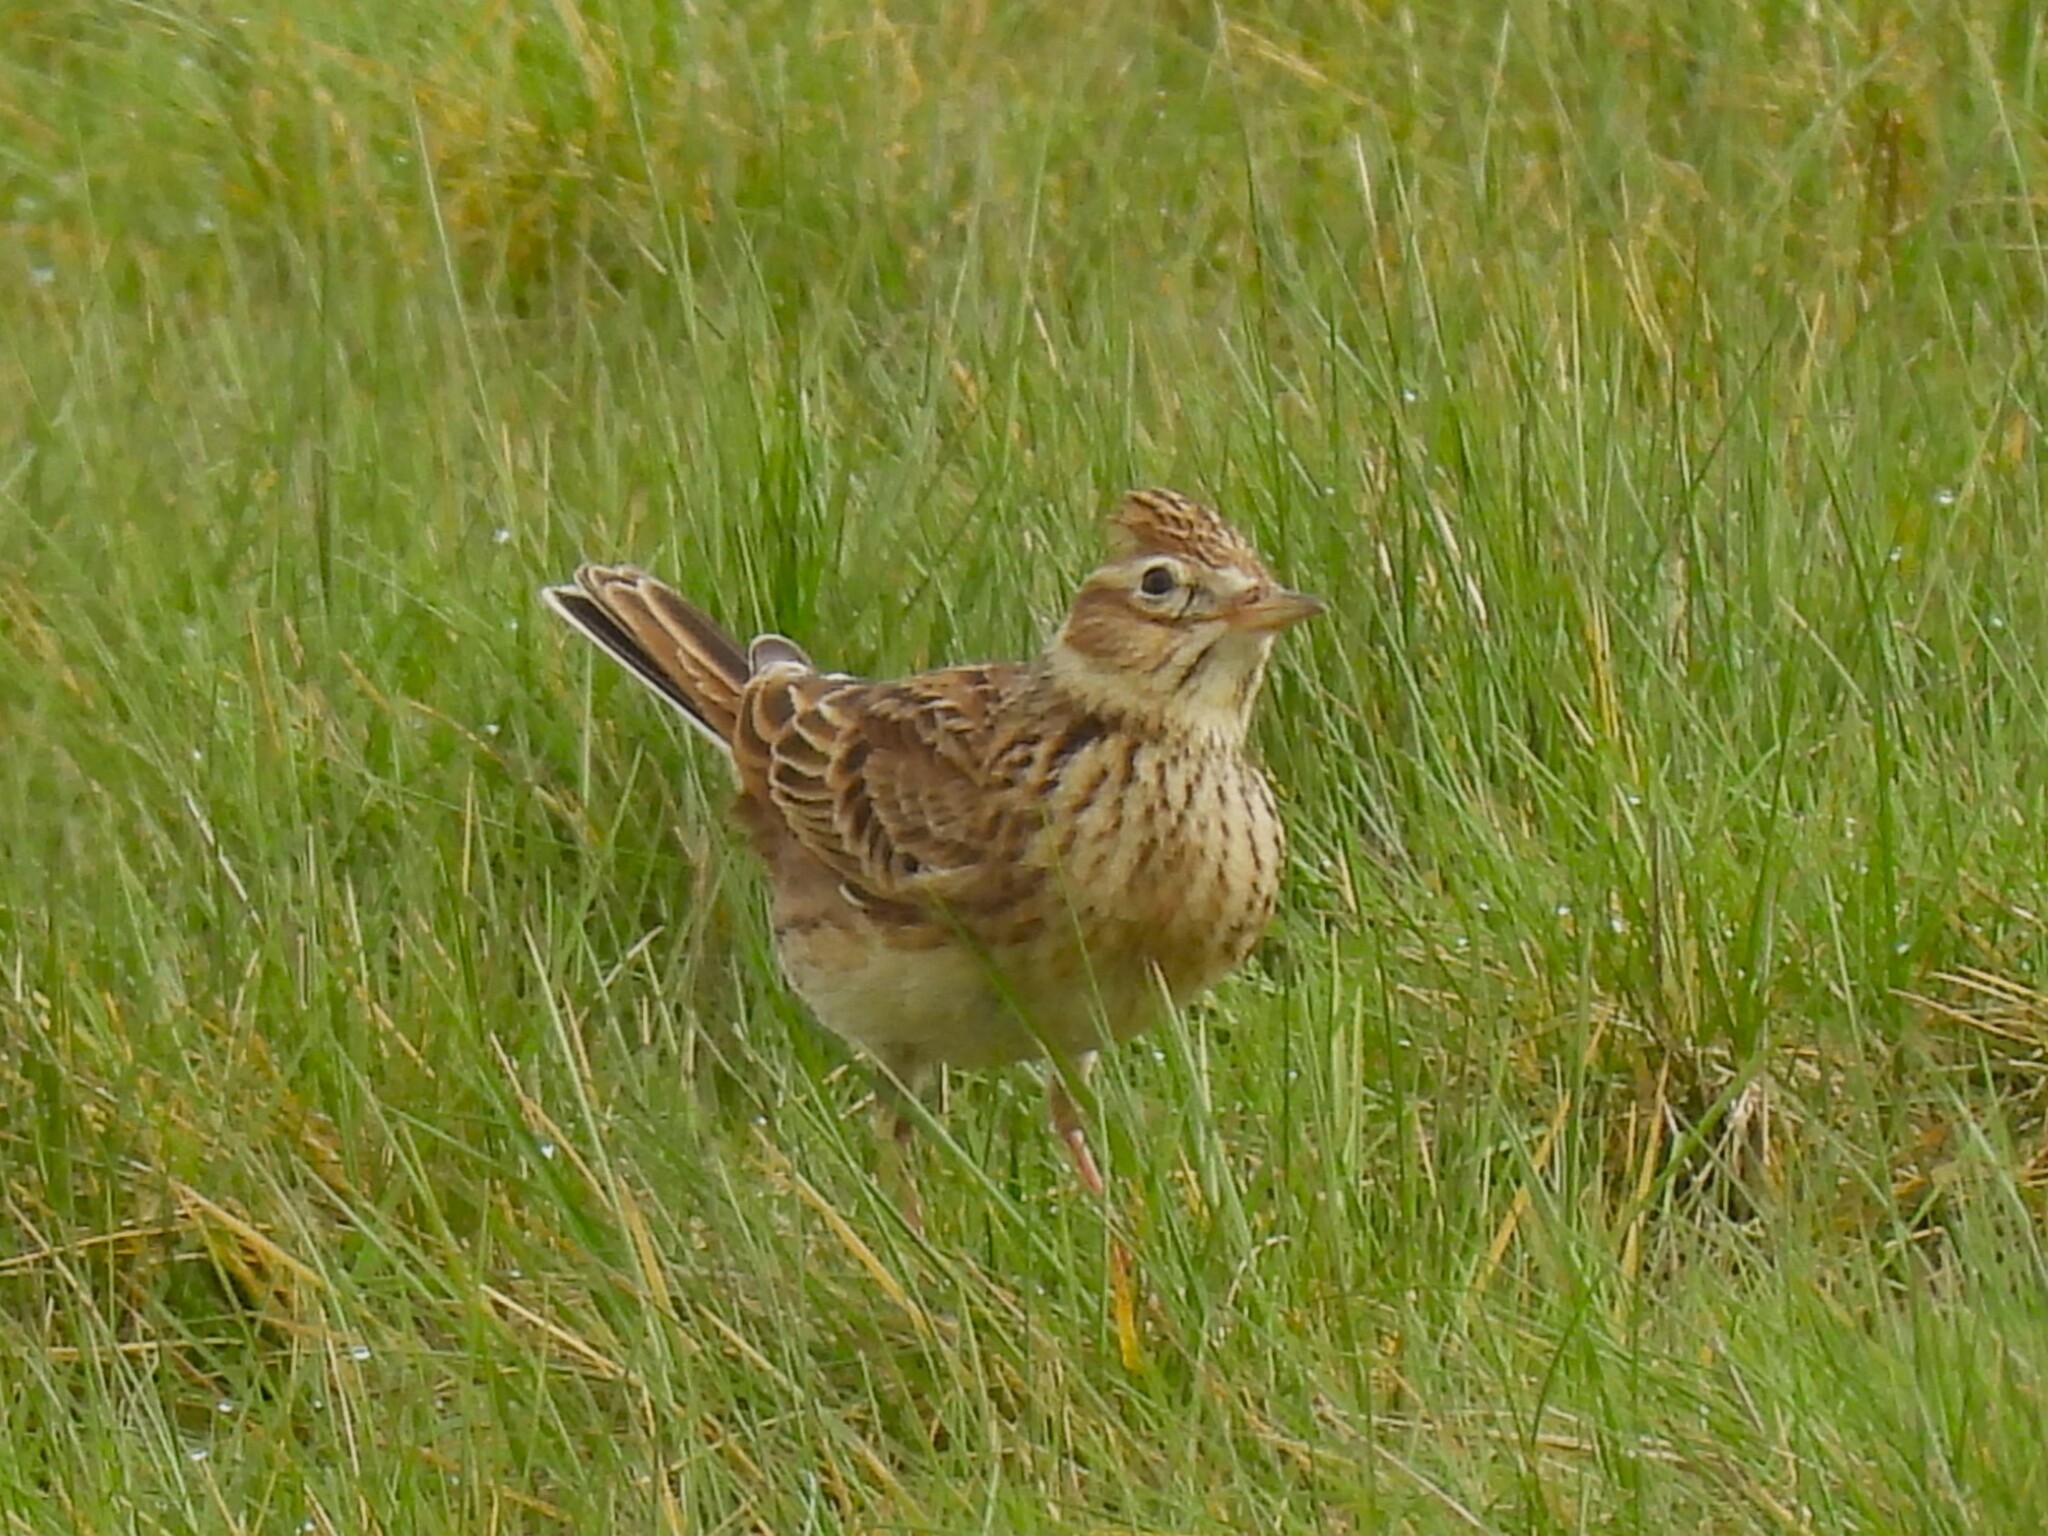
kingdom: Animalia
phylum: Chordata
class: Aves
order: Passeriformes
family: Alaudidae
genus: Alauda
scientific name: Alauda arvensis
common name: Eurasian skylark
